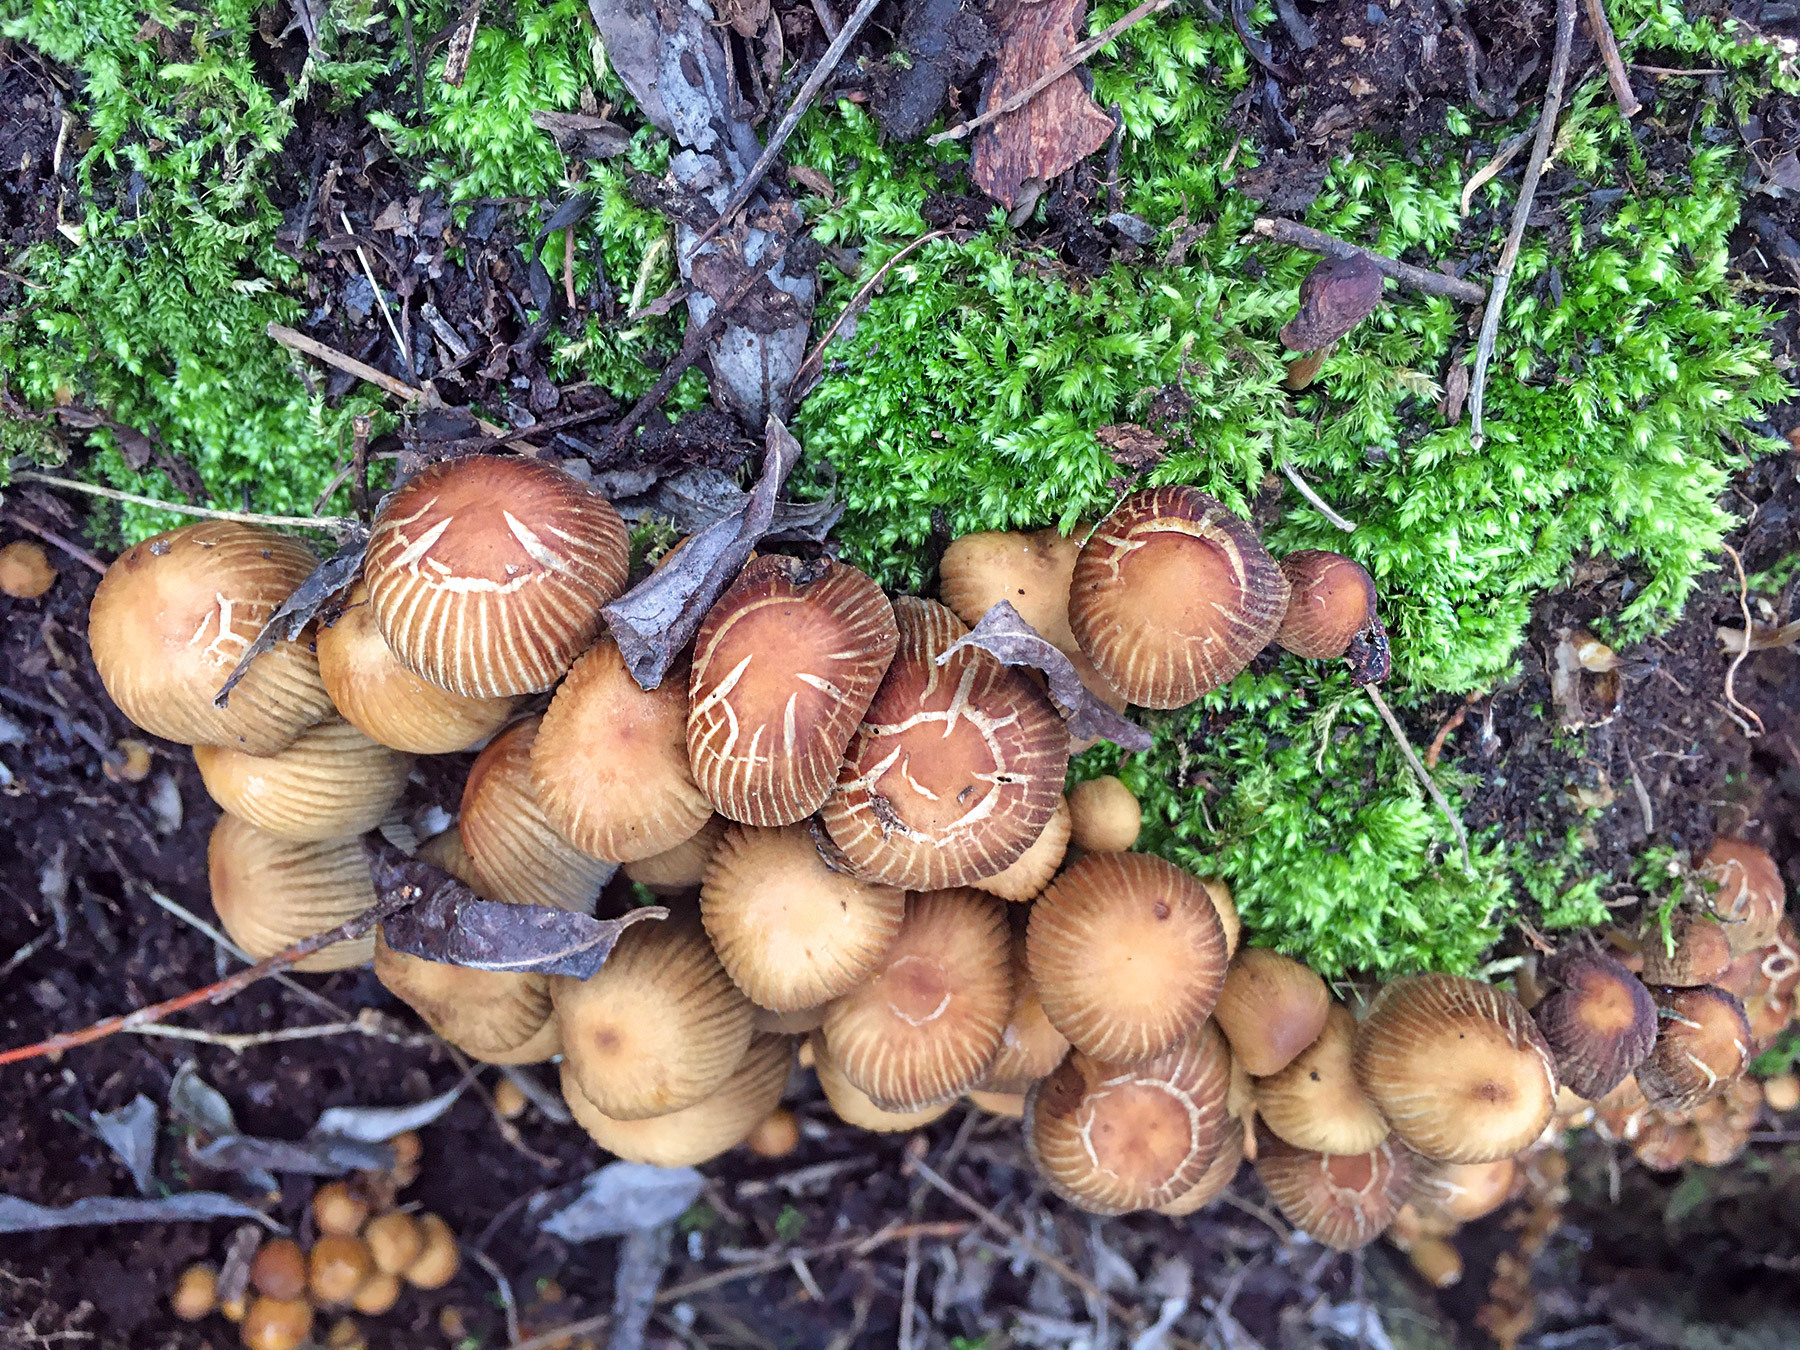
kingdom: Fungi
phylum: Basidiomycota
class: Agaricomycetes
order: Agaricales
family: Psathyrellaceae
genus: Coprinellus
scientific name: Coprinellus micaceus
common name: Glistening ink-cap
